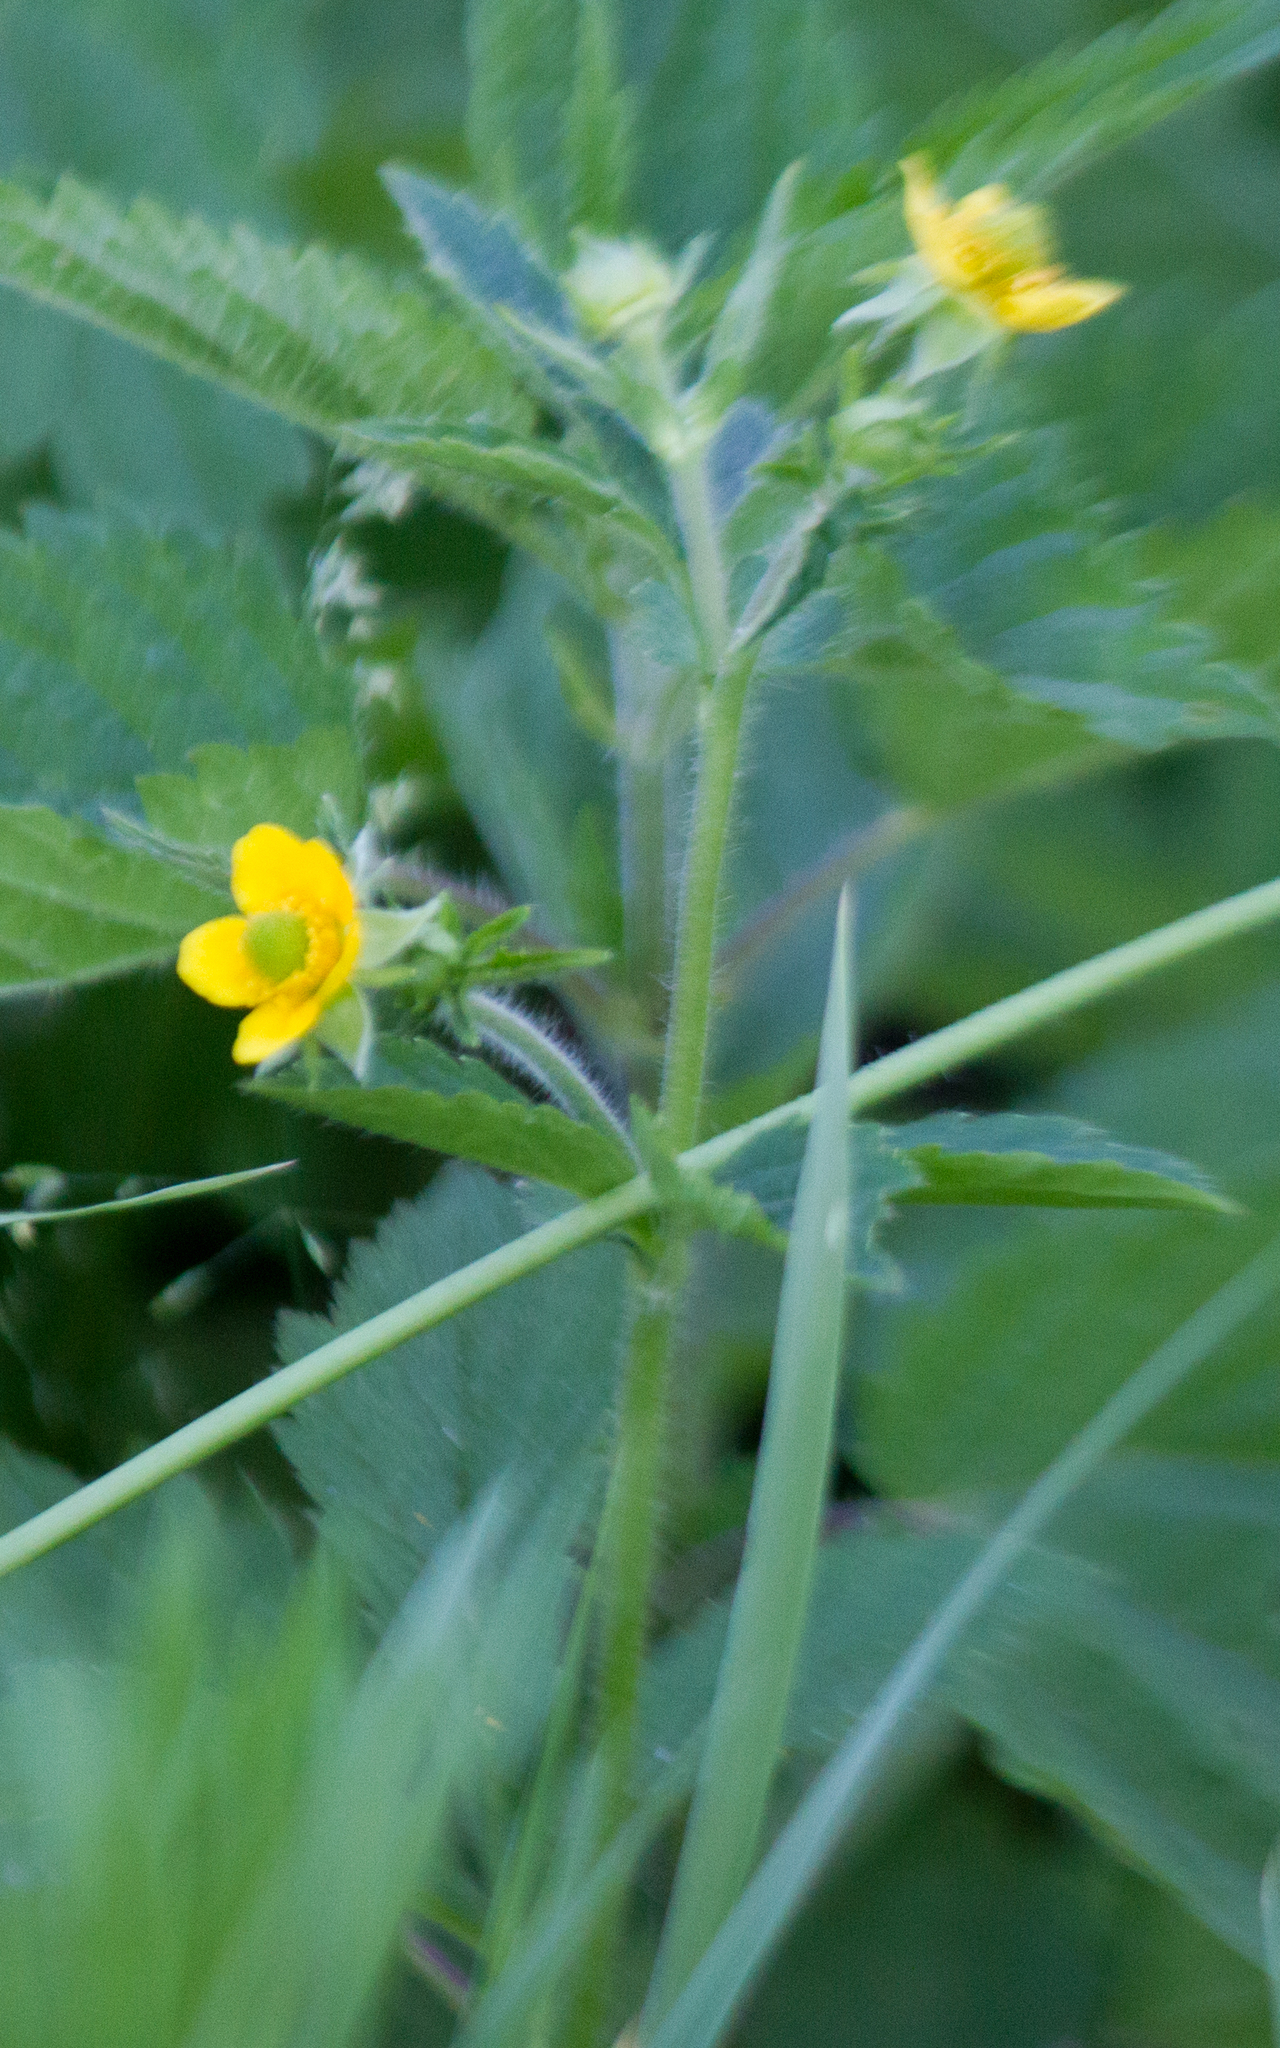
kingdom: Plantae
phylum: Tracheophyta
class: Magnoliopsida
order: Rosales
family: Rosaceae
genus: Geum
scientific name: Geum aleppicum
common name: Yellow avens
